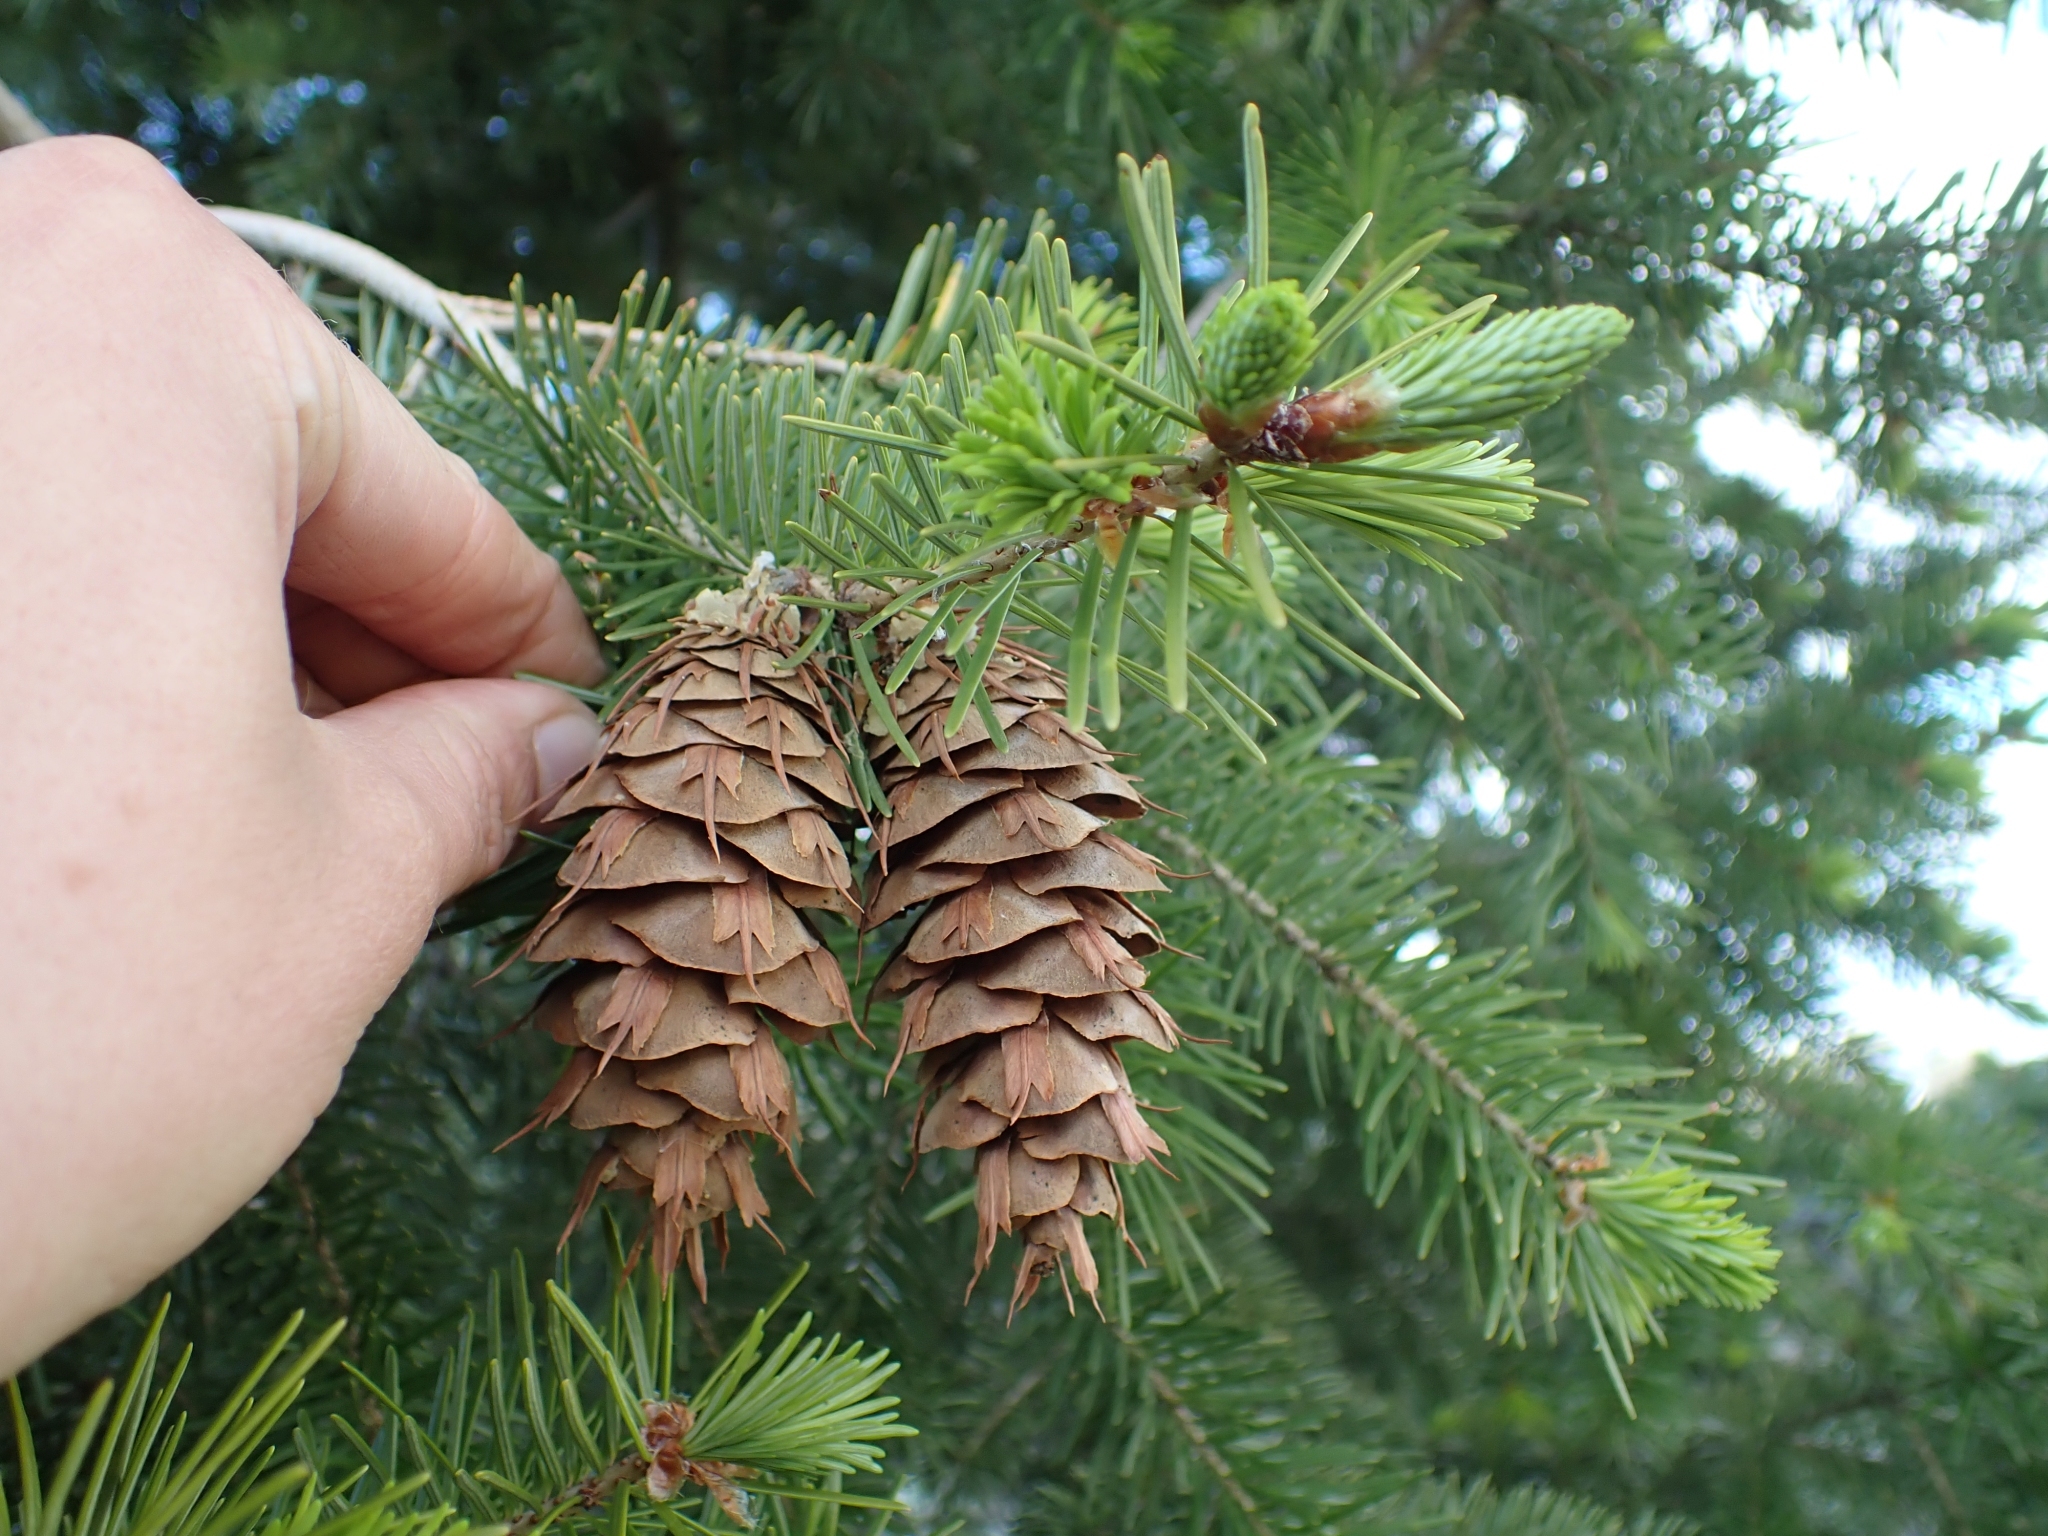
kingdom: Plantae
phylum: Tracheophyta
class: Pinopsida
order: Pinales
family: Pinaceae
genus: Pseudotsuga
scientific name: Pseudotsuga menziesii
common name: Douglas fir
